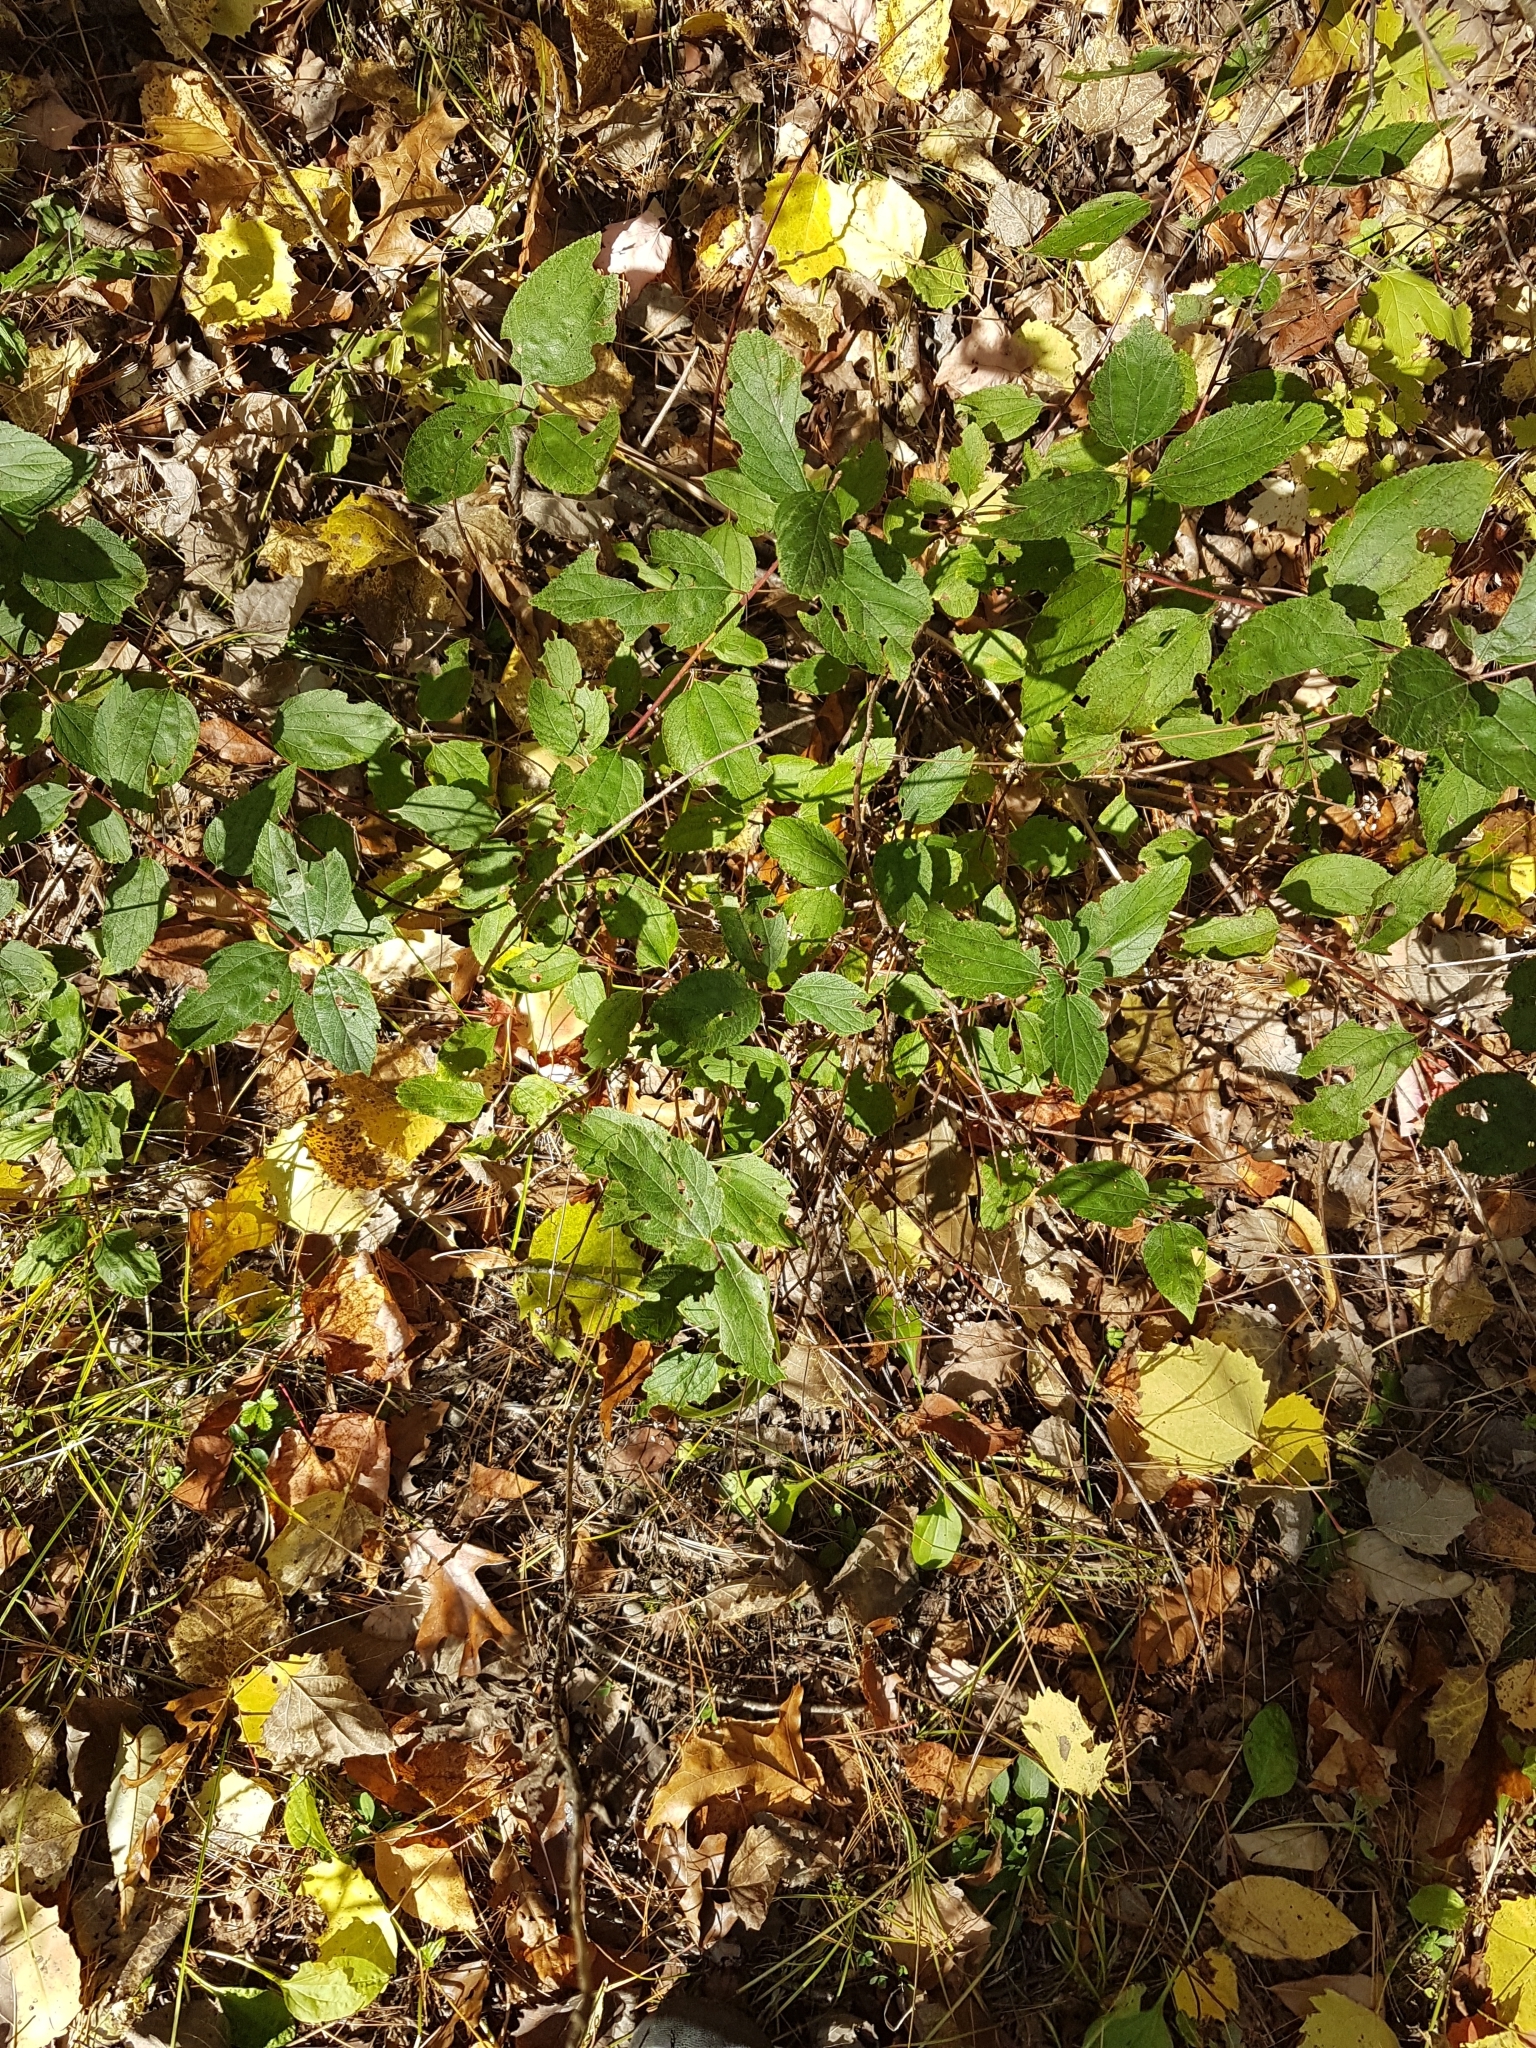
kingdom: Plantae
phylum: Tracheophyta
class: Magnoliopsida
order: Rosales
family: Rhamnaceae
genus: Ceanothus
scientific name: Ceanothus americanus
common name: Redroot
